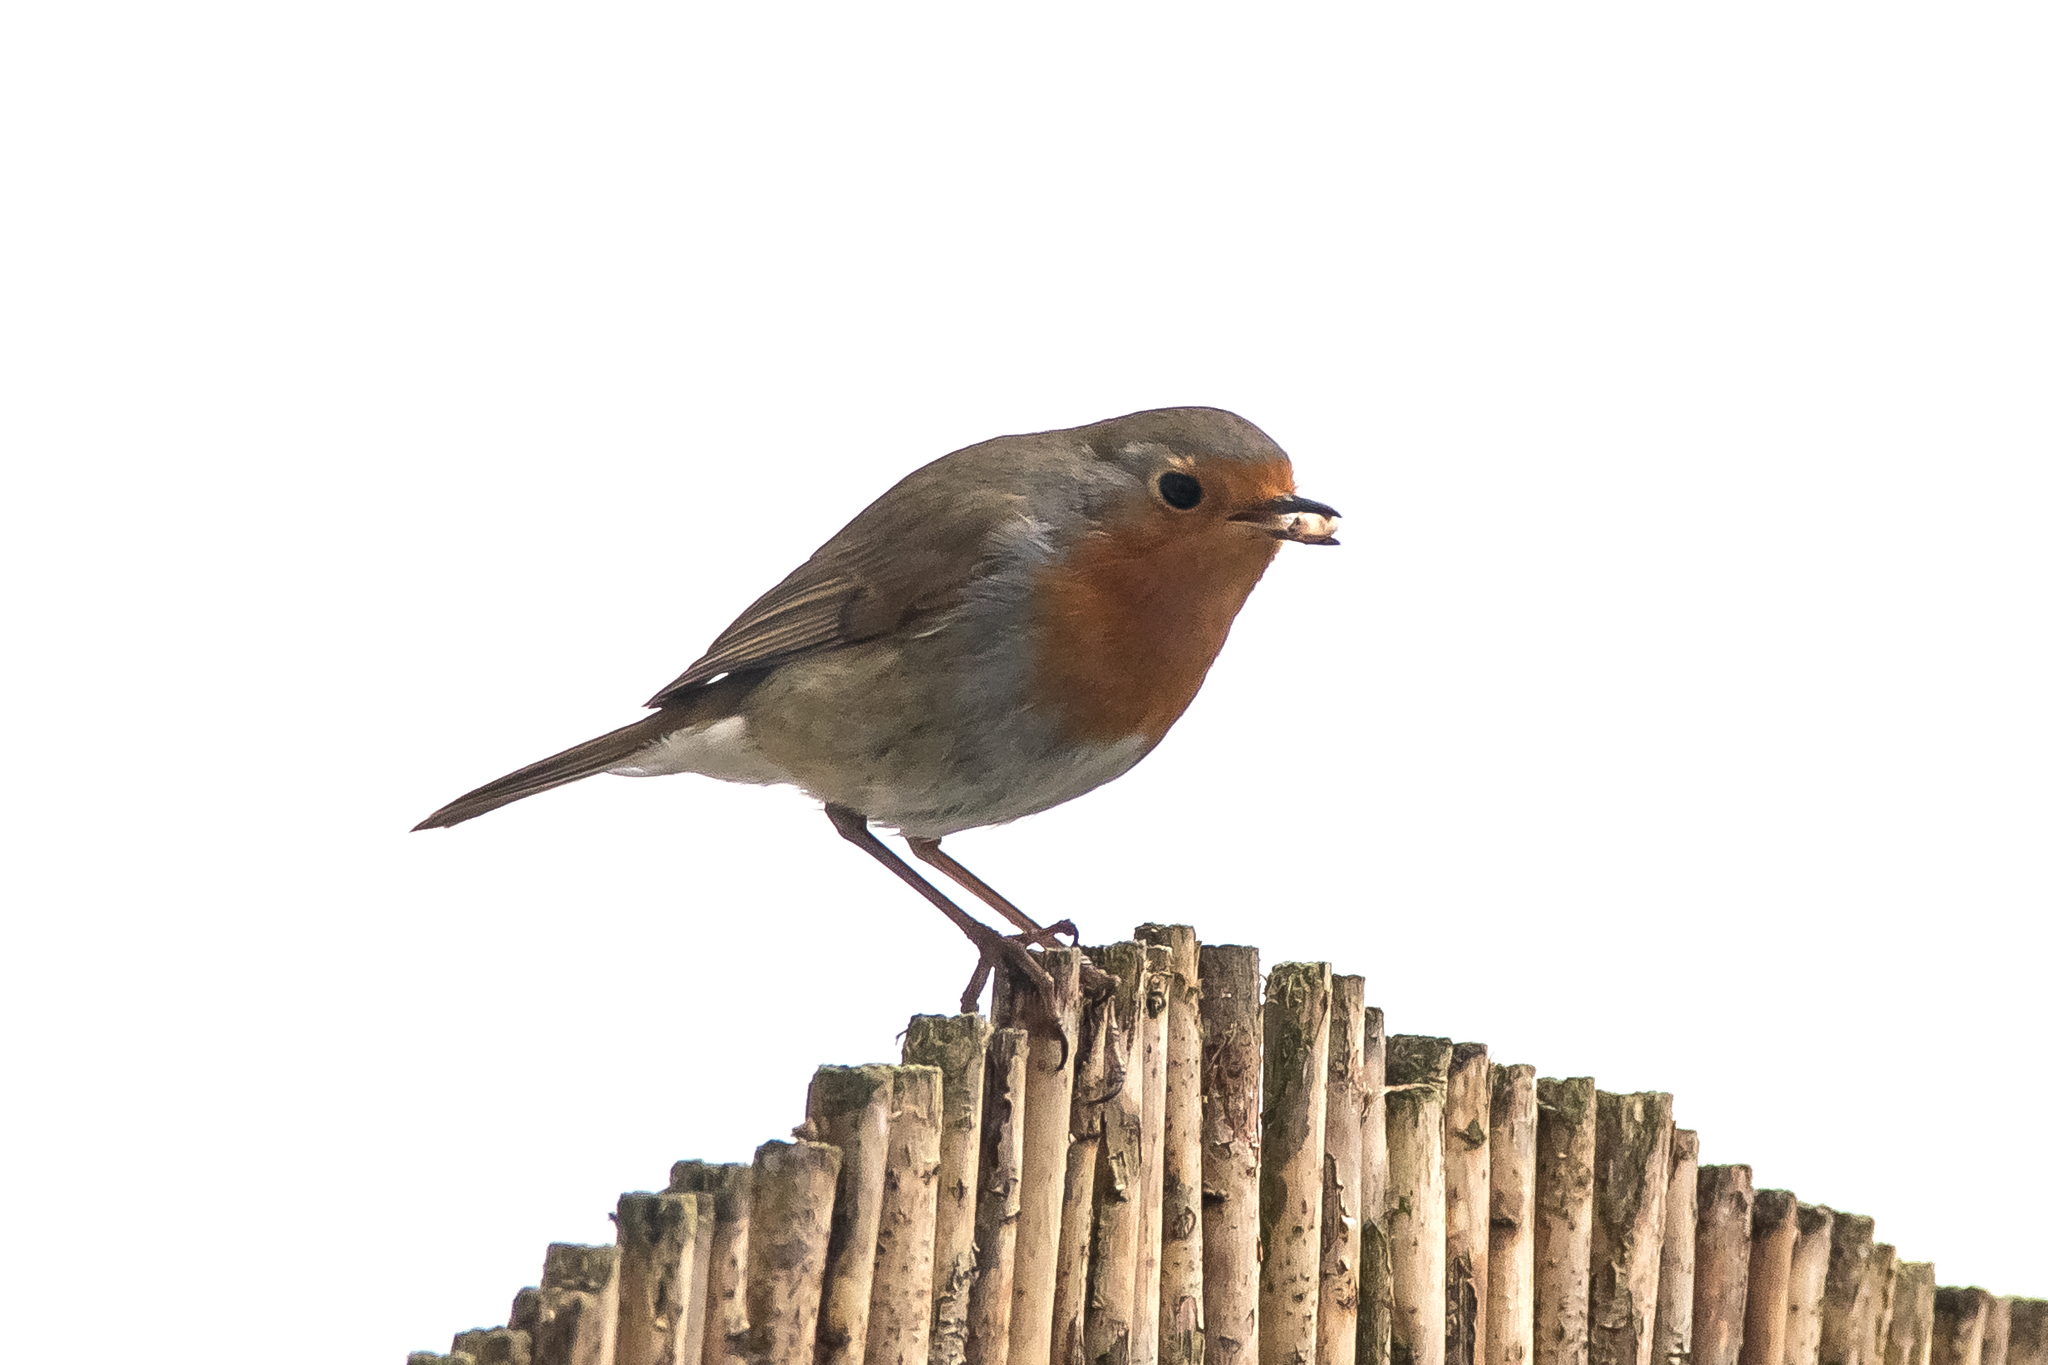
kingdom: Animalia
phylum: Chordata
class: Aves
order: Passeriformes
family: Muscicapidae
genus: Erithacus
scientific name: Erithacus rubecula
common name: European robin
